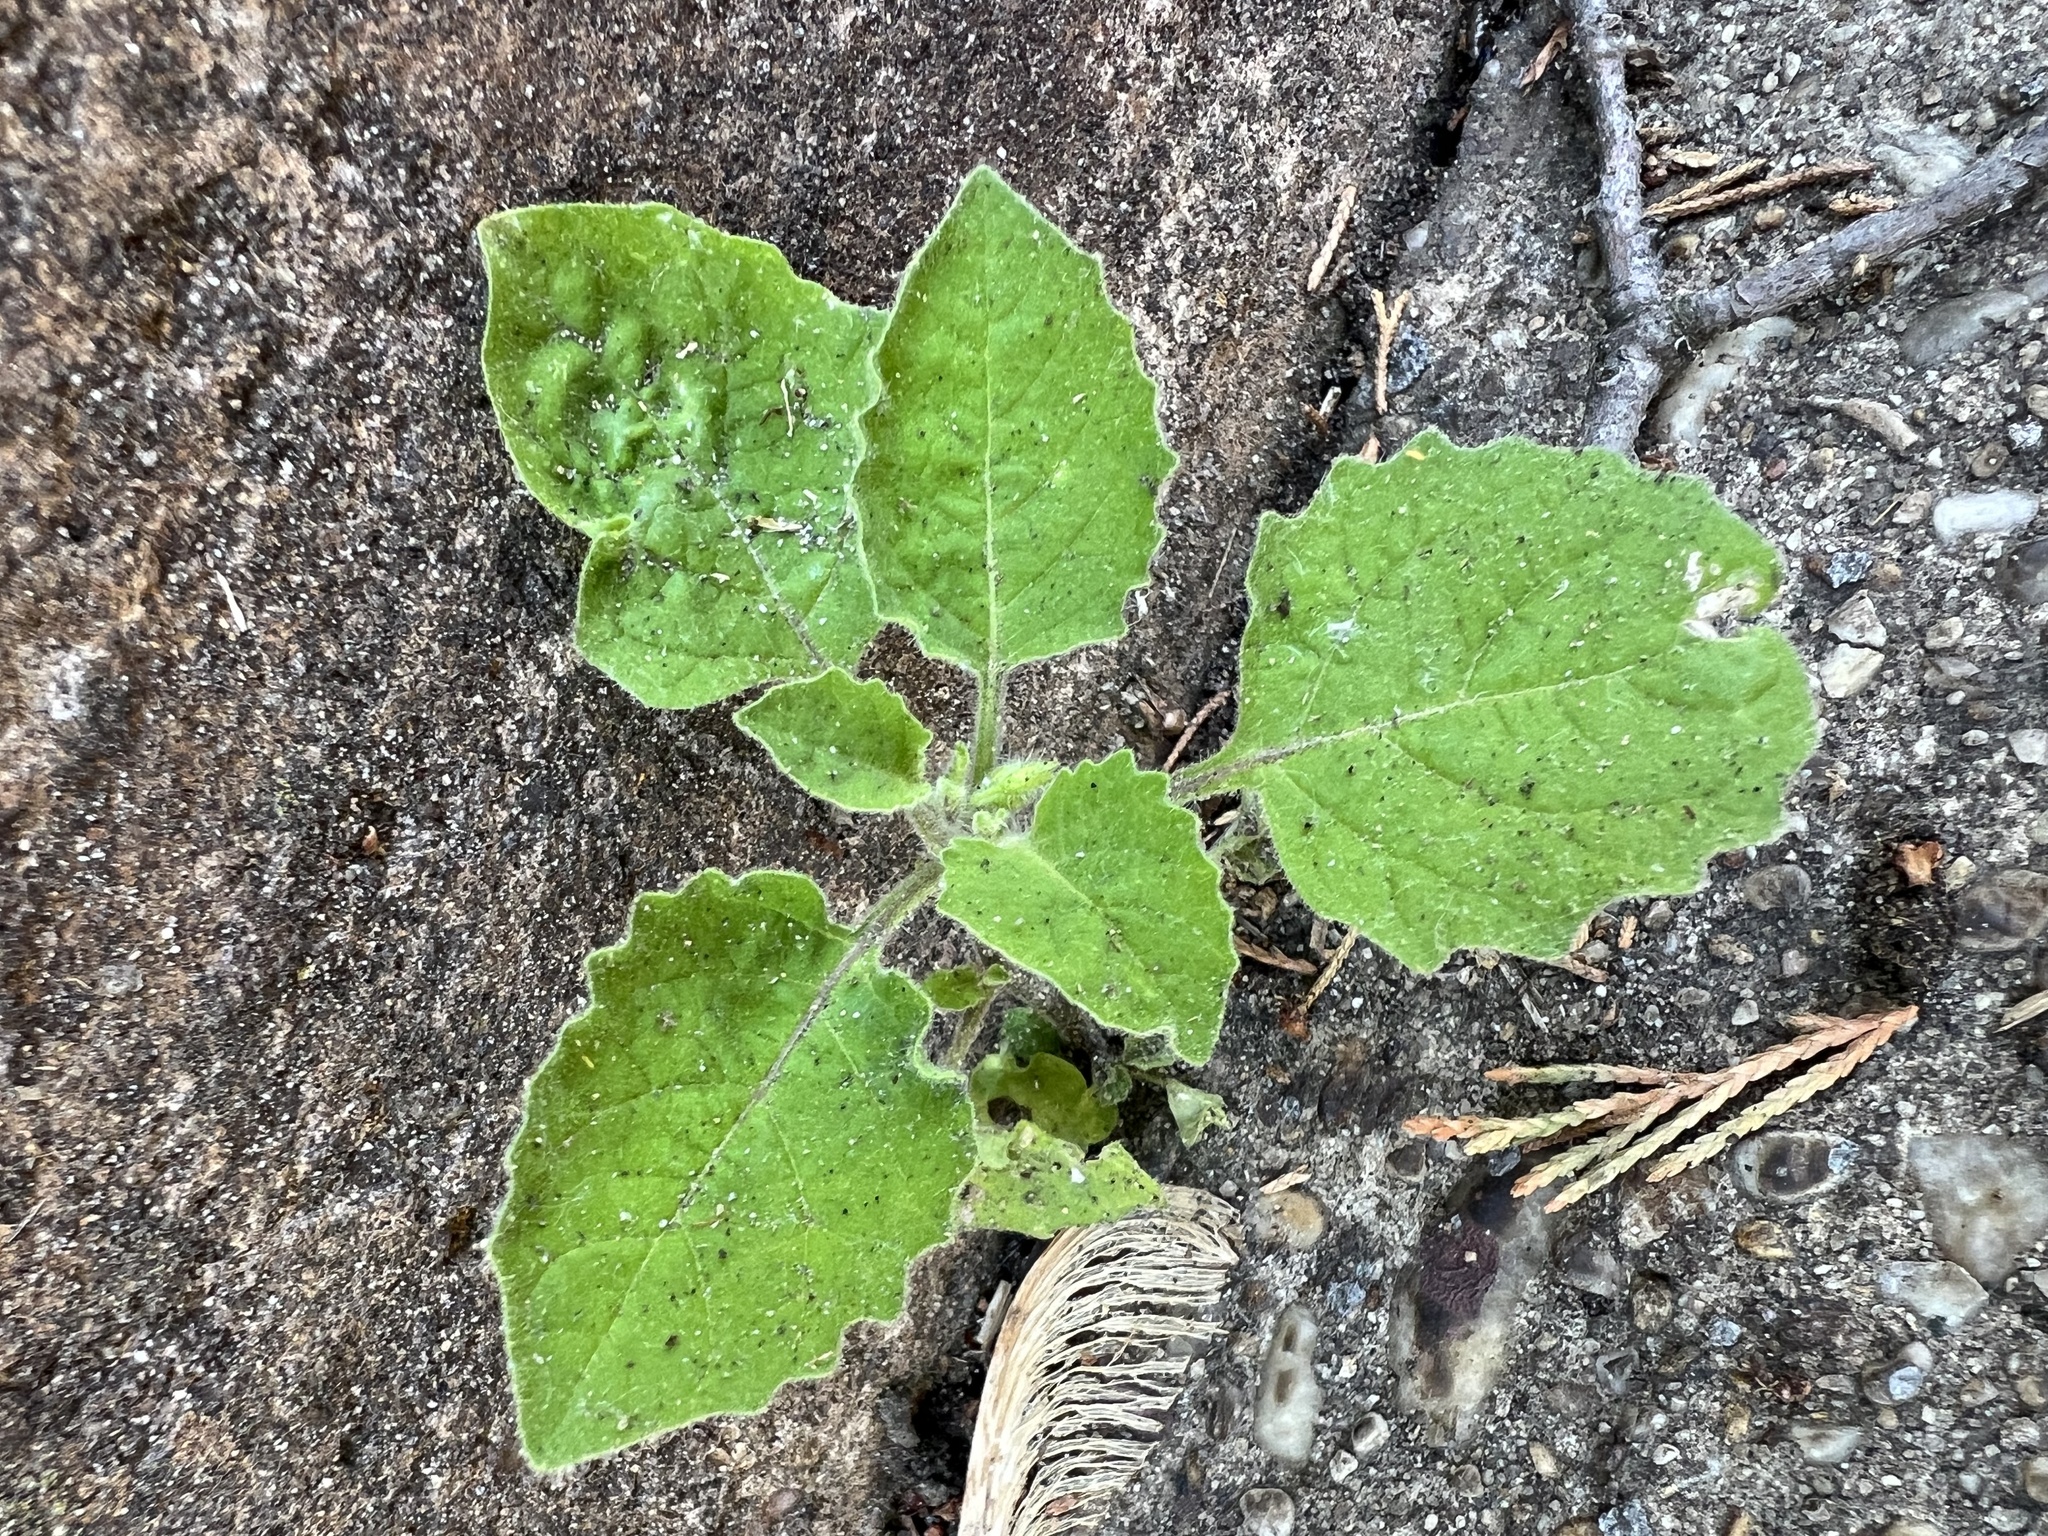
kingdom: Plantae
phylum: Tracheophyta
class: Magnoliopsida
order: Solanales
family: Solanaceae
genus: Solanum
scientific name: Solanum sarrachoides
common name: Leafy-fruited nightshade
